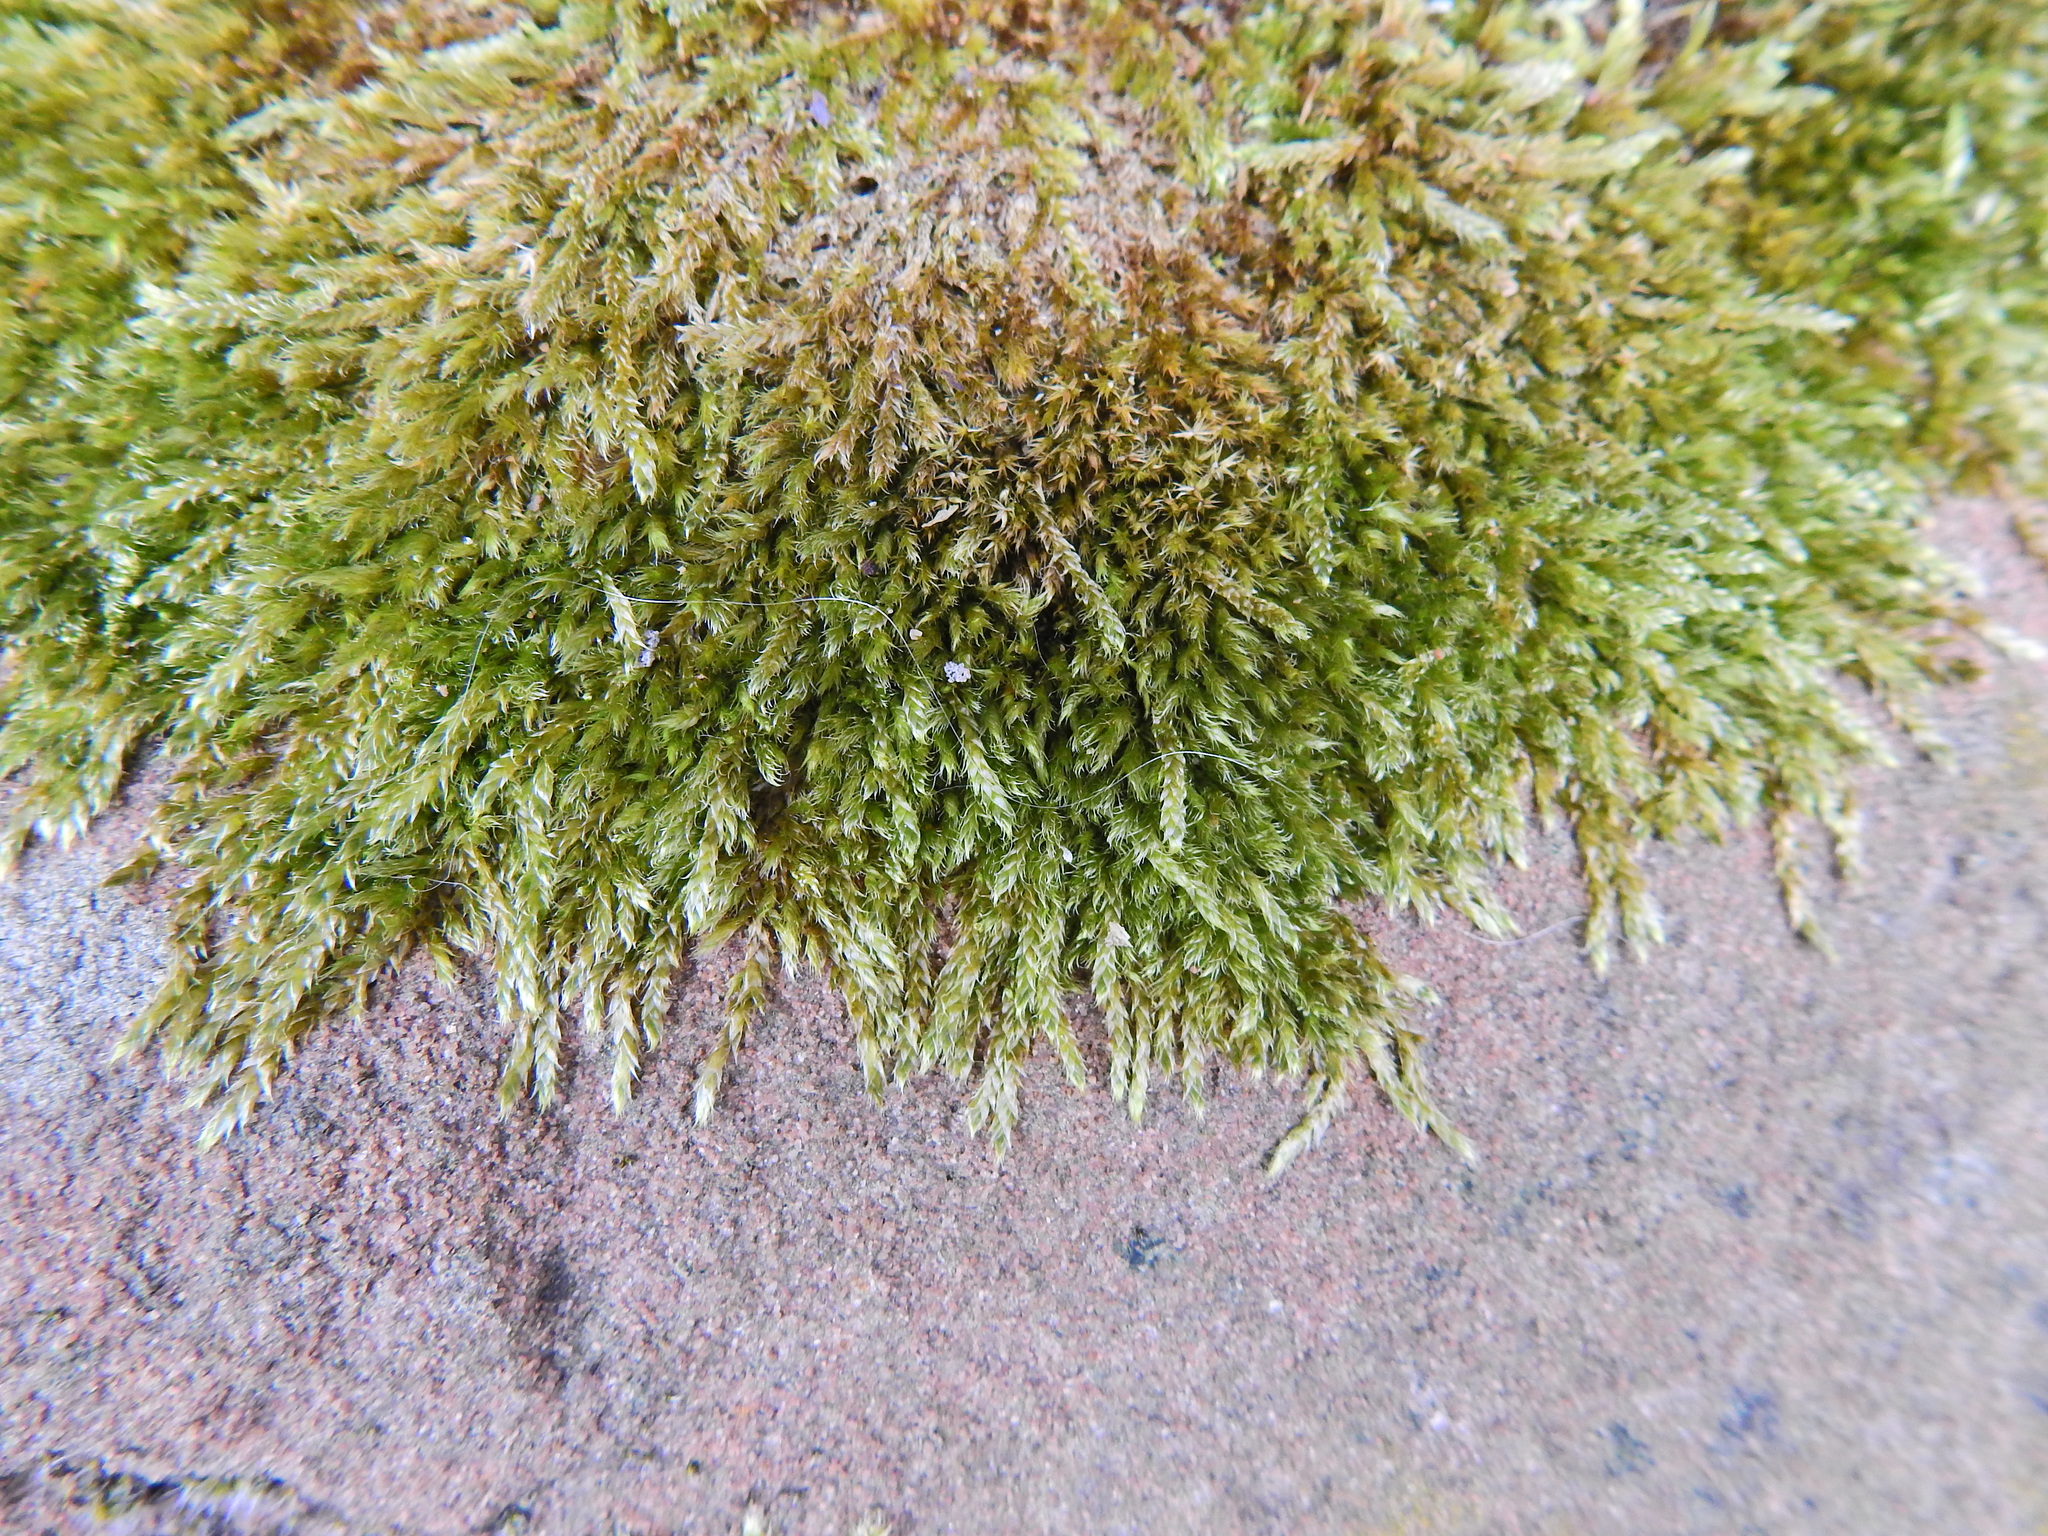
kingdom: Plantae
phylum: Bryophyta
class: Bryopsida
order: Hypnales
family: Hypnaceae
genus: Hypnum
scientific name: Hypnum cupressiforme
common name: Cypress-leaved plait-moss
